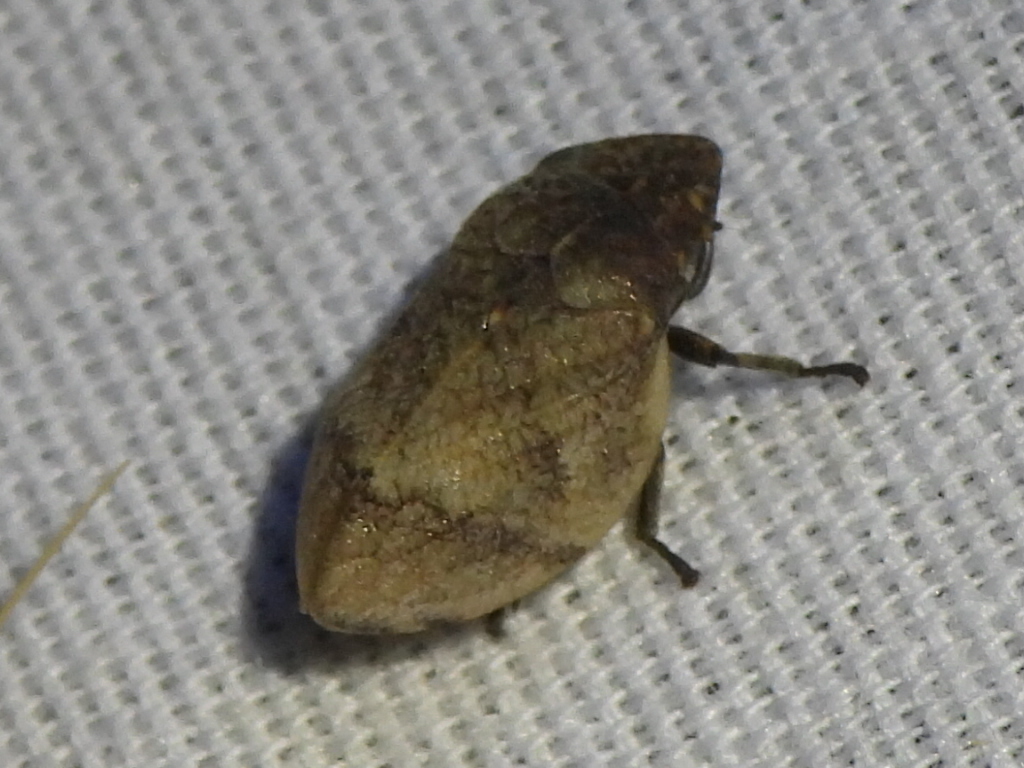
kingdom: Animalia
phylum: Arthropoda
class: Insecta
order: Hemiptera
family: Aphrophoridae
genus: Lepyronia
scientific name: Lepyronia gibbosa
